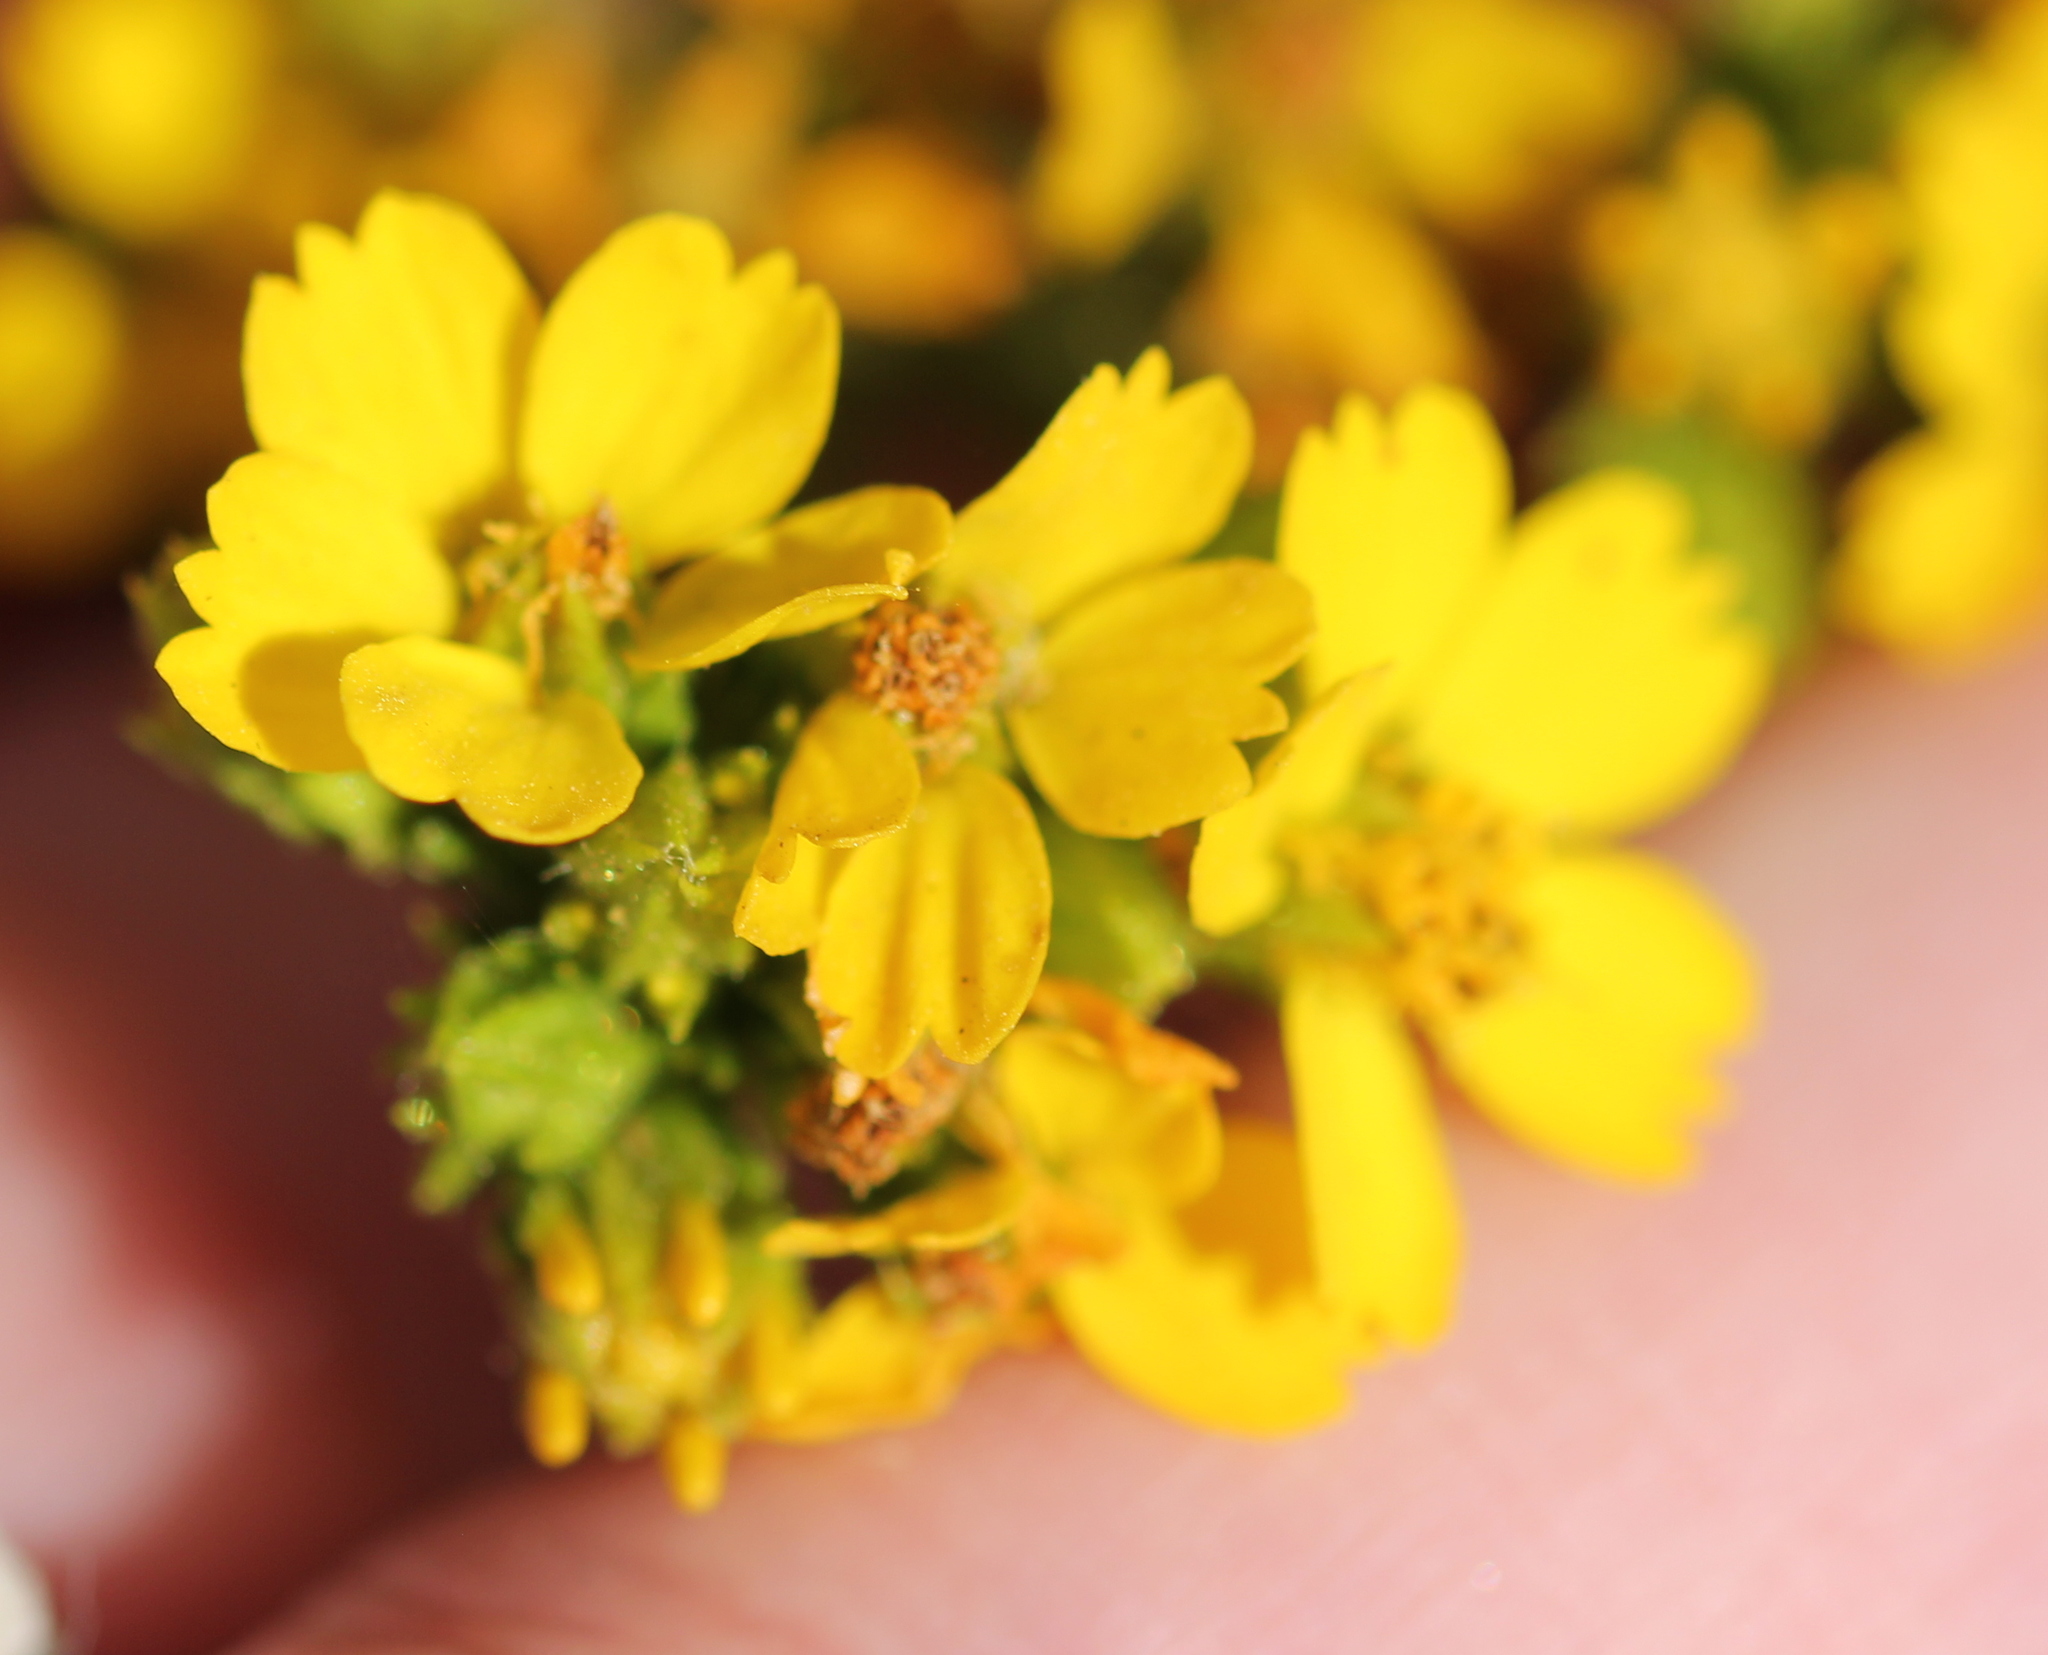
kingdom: Plantae
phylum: Tracheophyta
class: Magnoliopsida
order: Asterales
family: Asteraceae
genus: Deinandra
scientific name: Deinandra fasciculata
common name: Clustered tarweed
